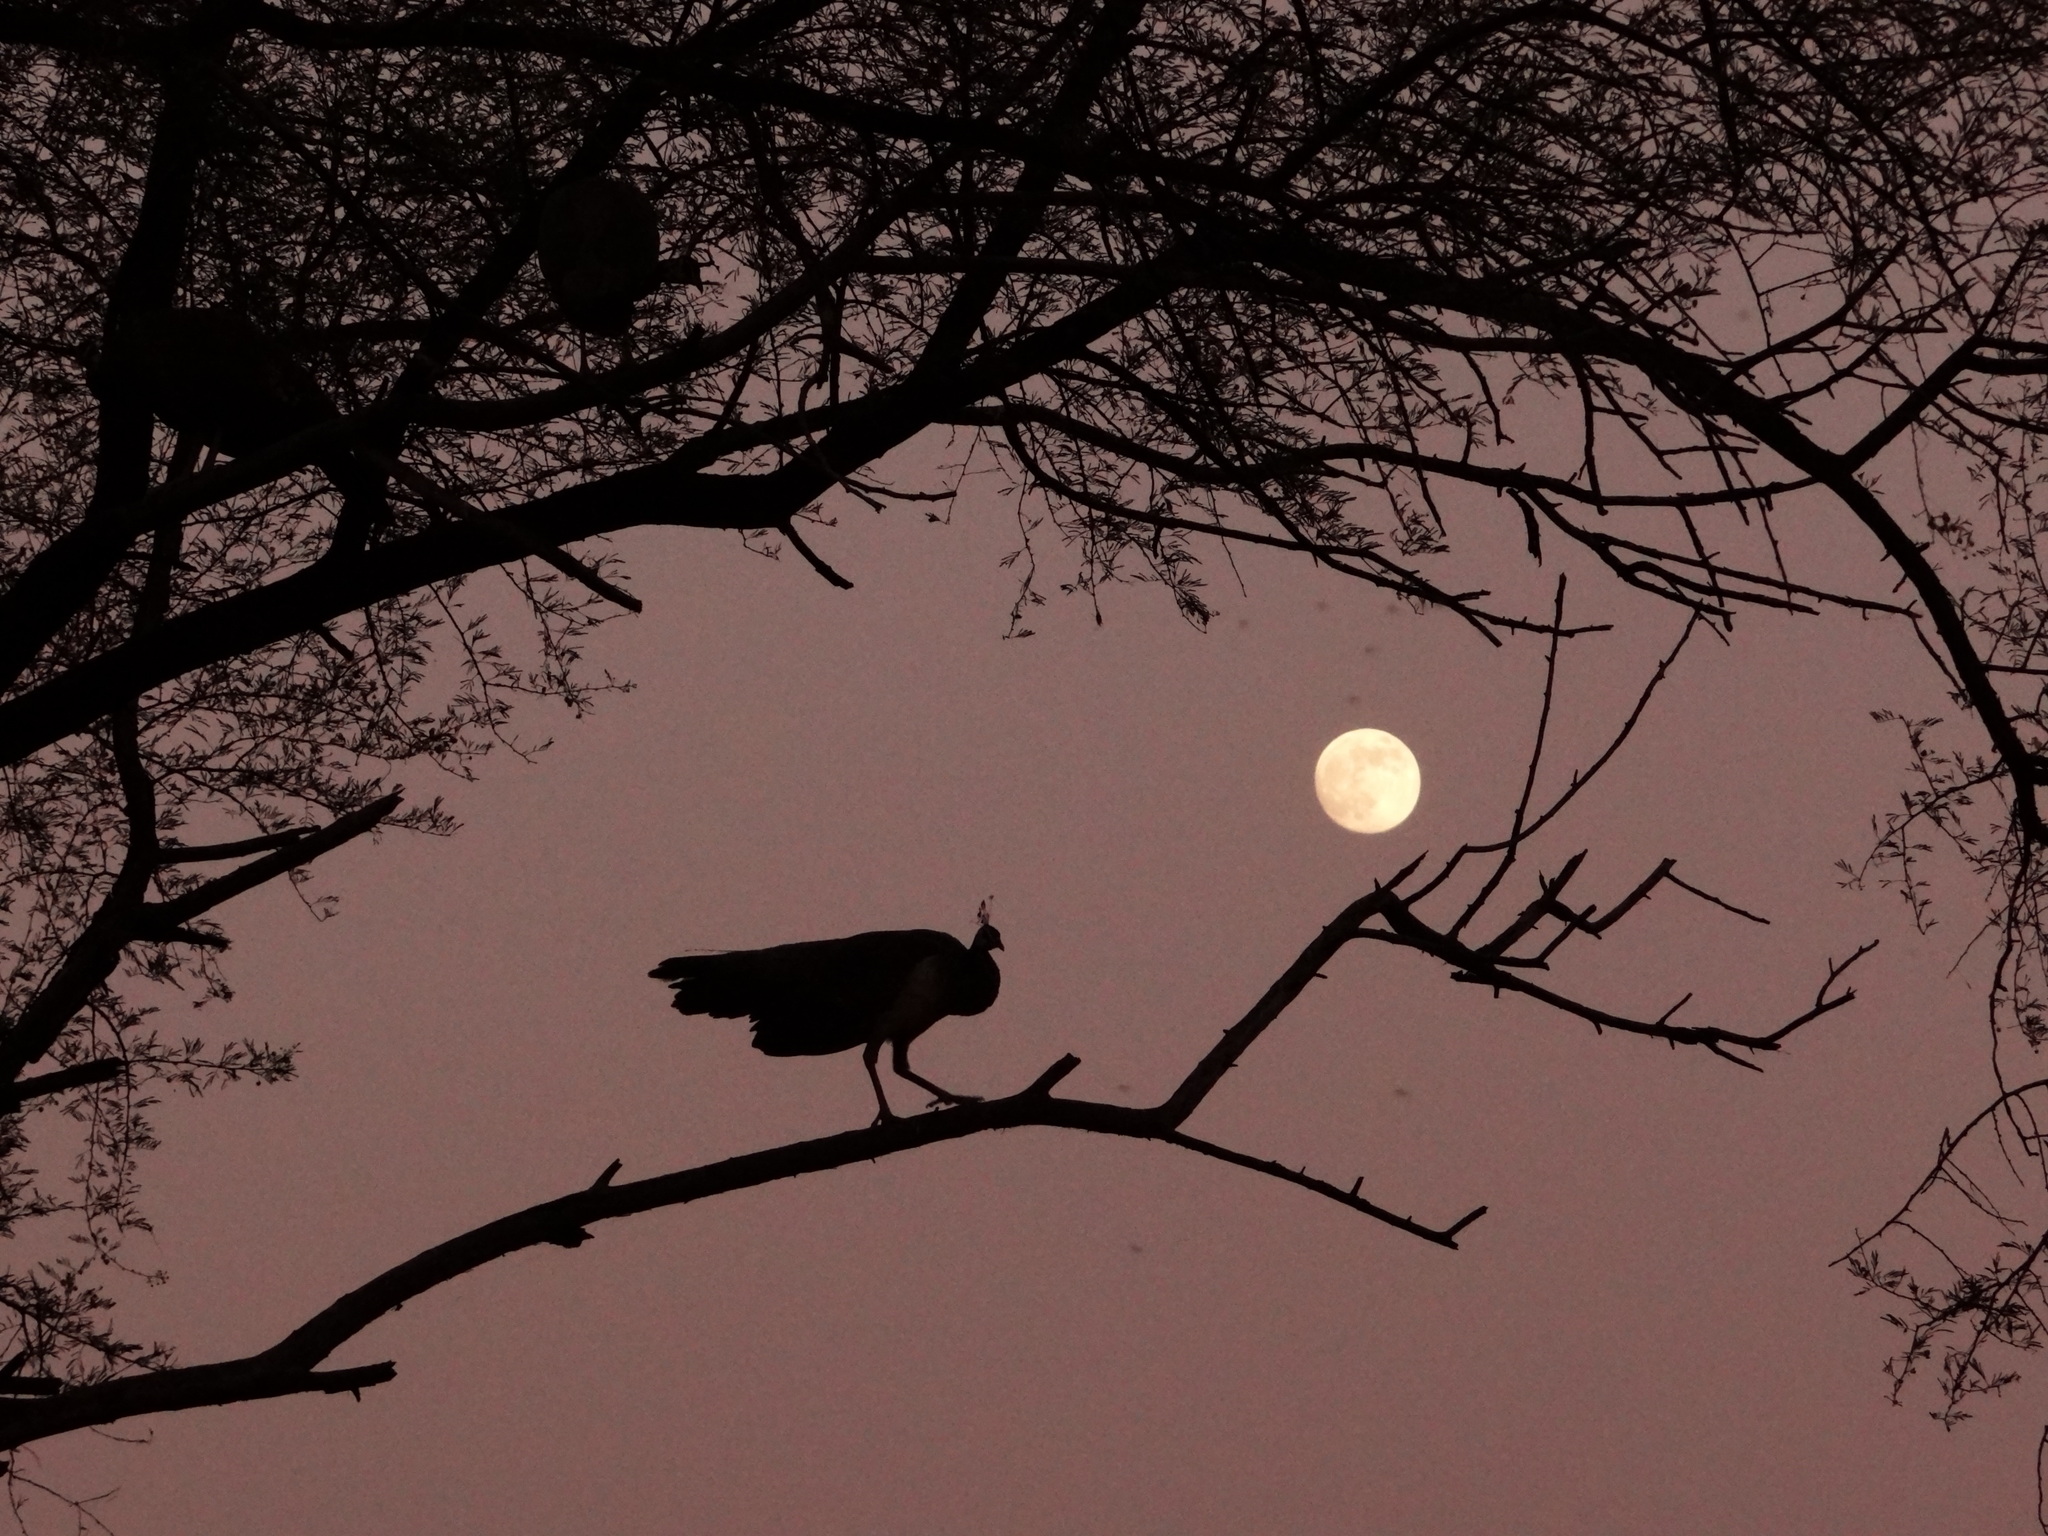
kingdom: Animalia
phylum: Chordata
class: Aves
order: Galliformes
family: Phasianidae
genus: Pavo
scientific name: Pavo cristatus
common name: Indian peafowl
